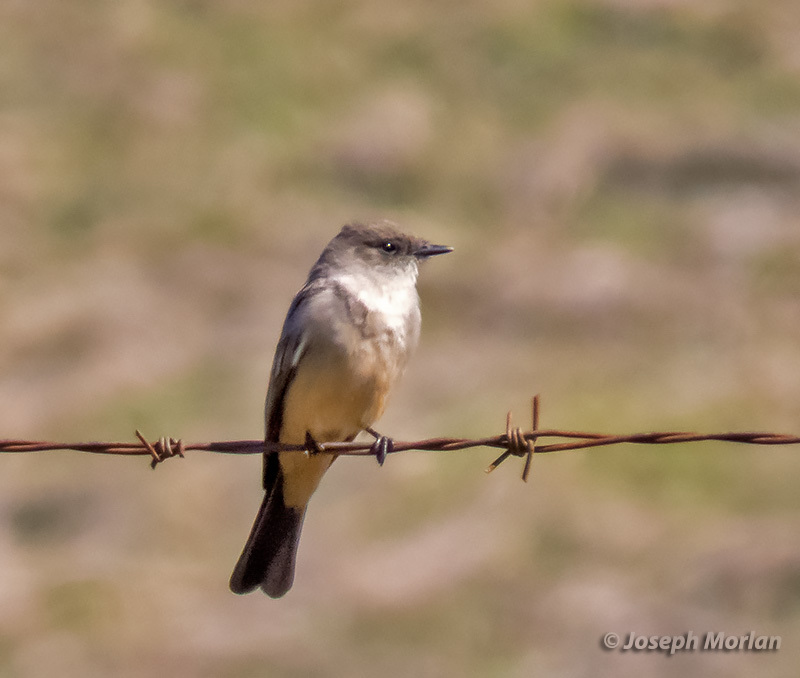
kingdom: Animalia
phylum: Chordata
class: Aves
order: Passeriformes
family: Tyrannidae
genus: Sayornis
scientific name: Sayornis saya
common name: Say's phoebe
